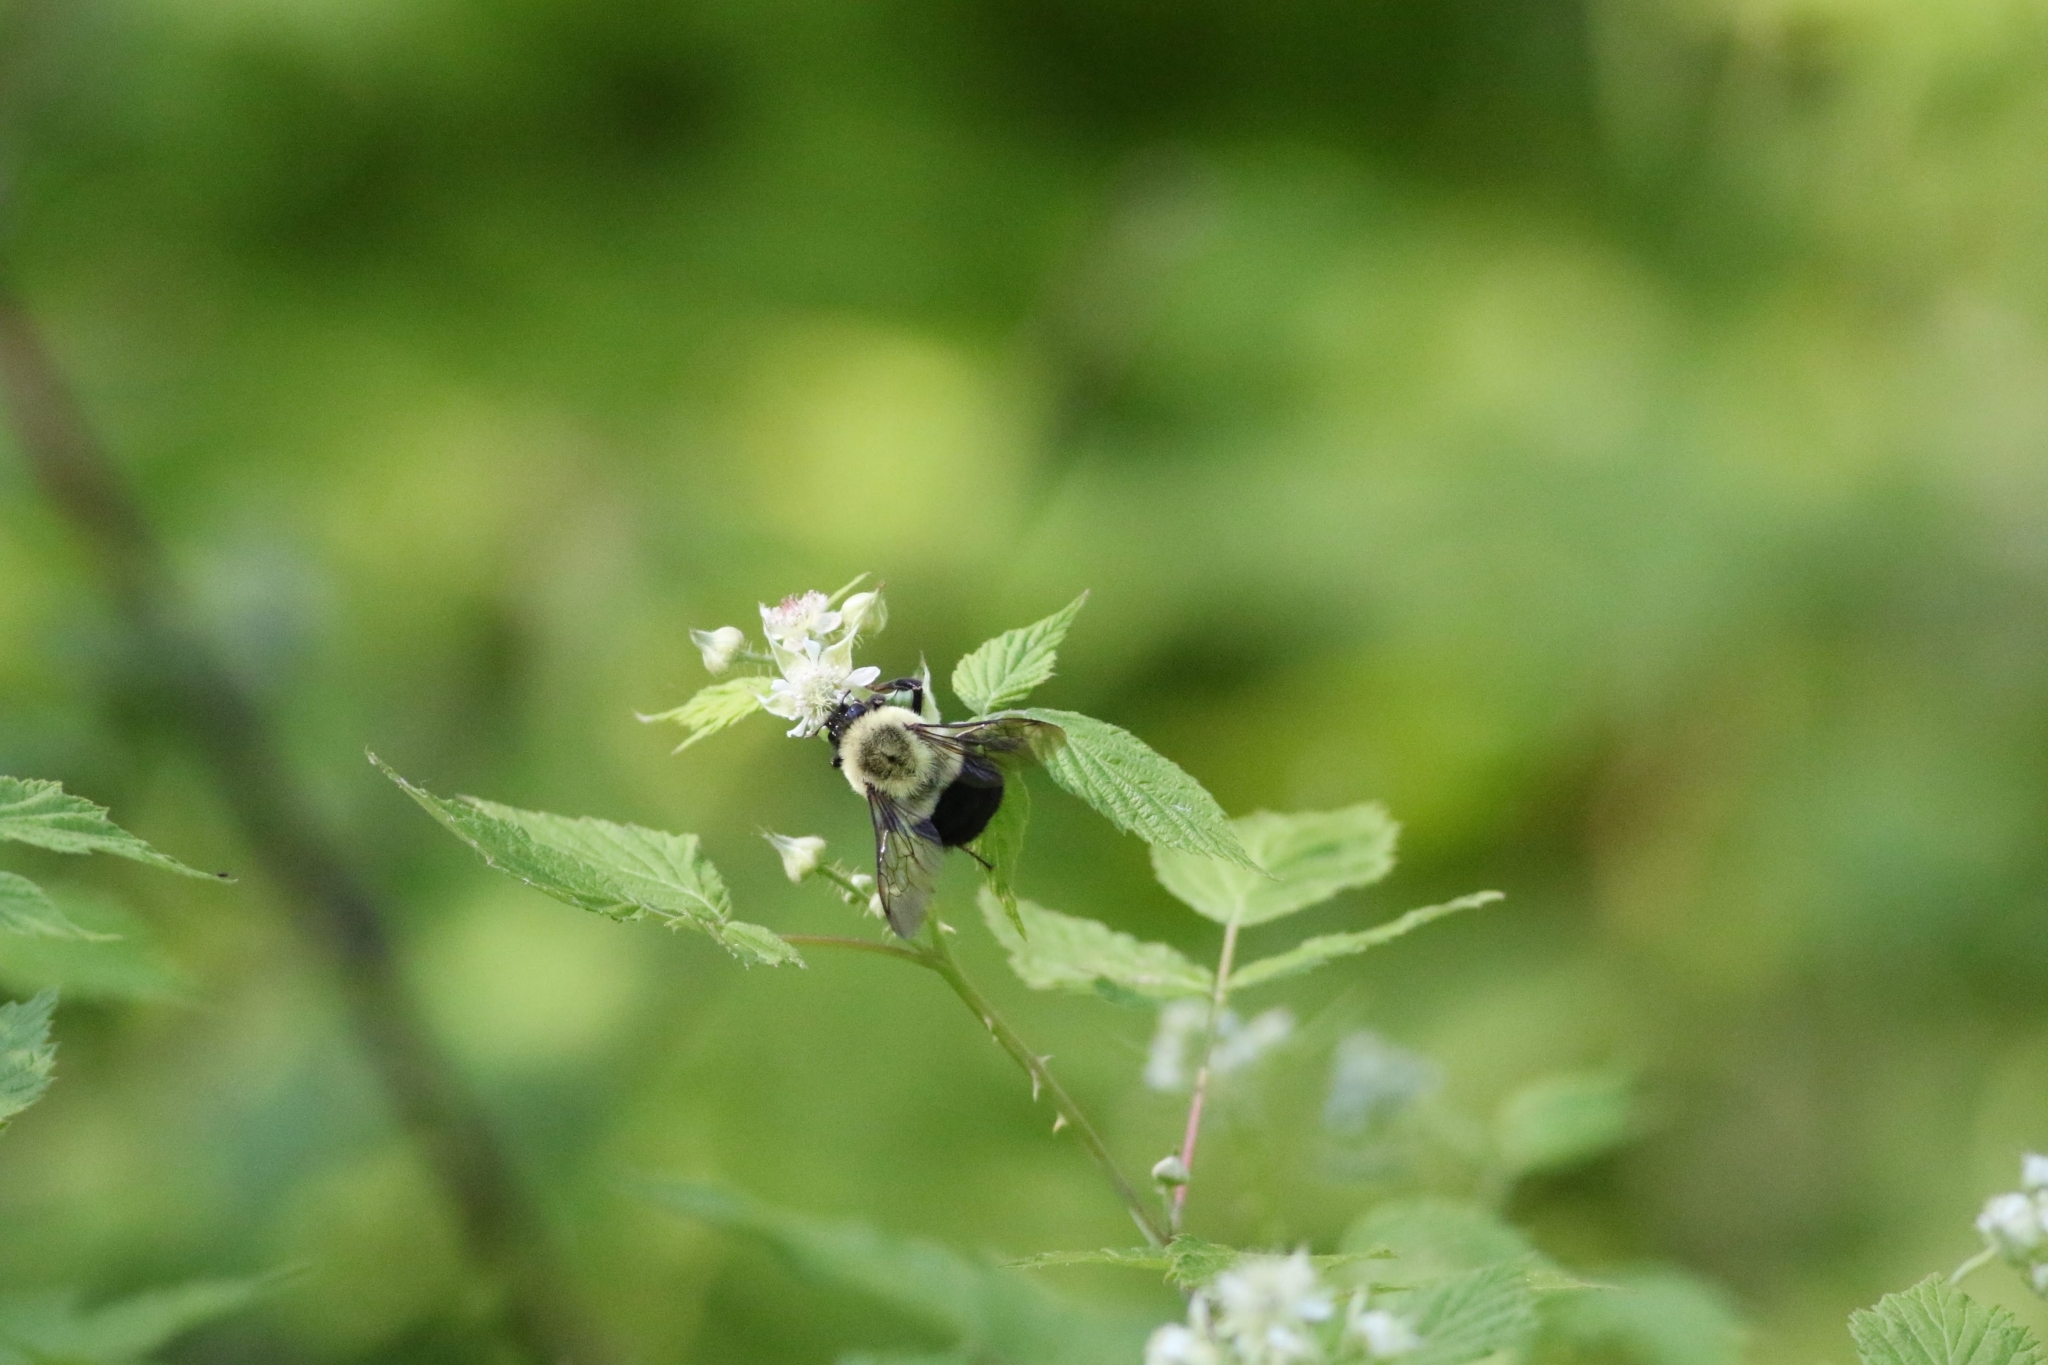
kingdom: Animalia
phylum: Arthropoda
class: Insecta
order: Hymenoptera
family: Apidae
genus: Bombus
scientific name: Bombus impatiens
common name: Common eastern bumble bee
